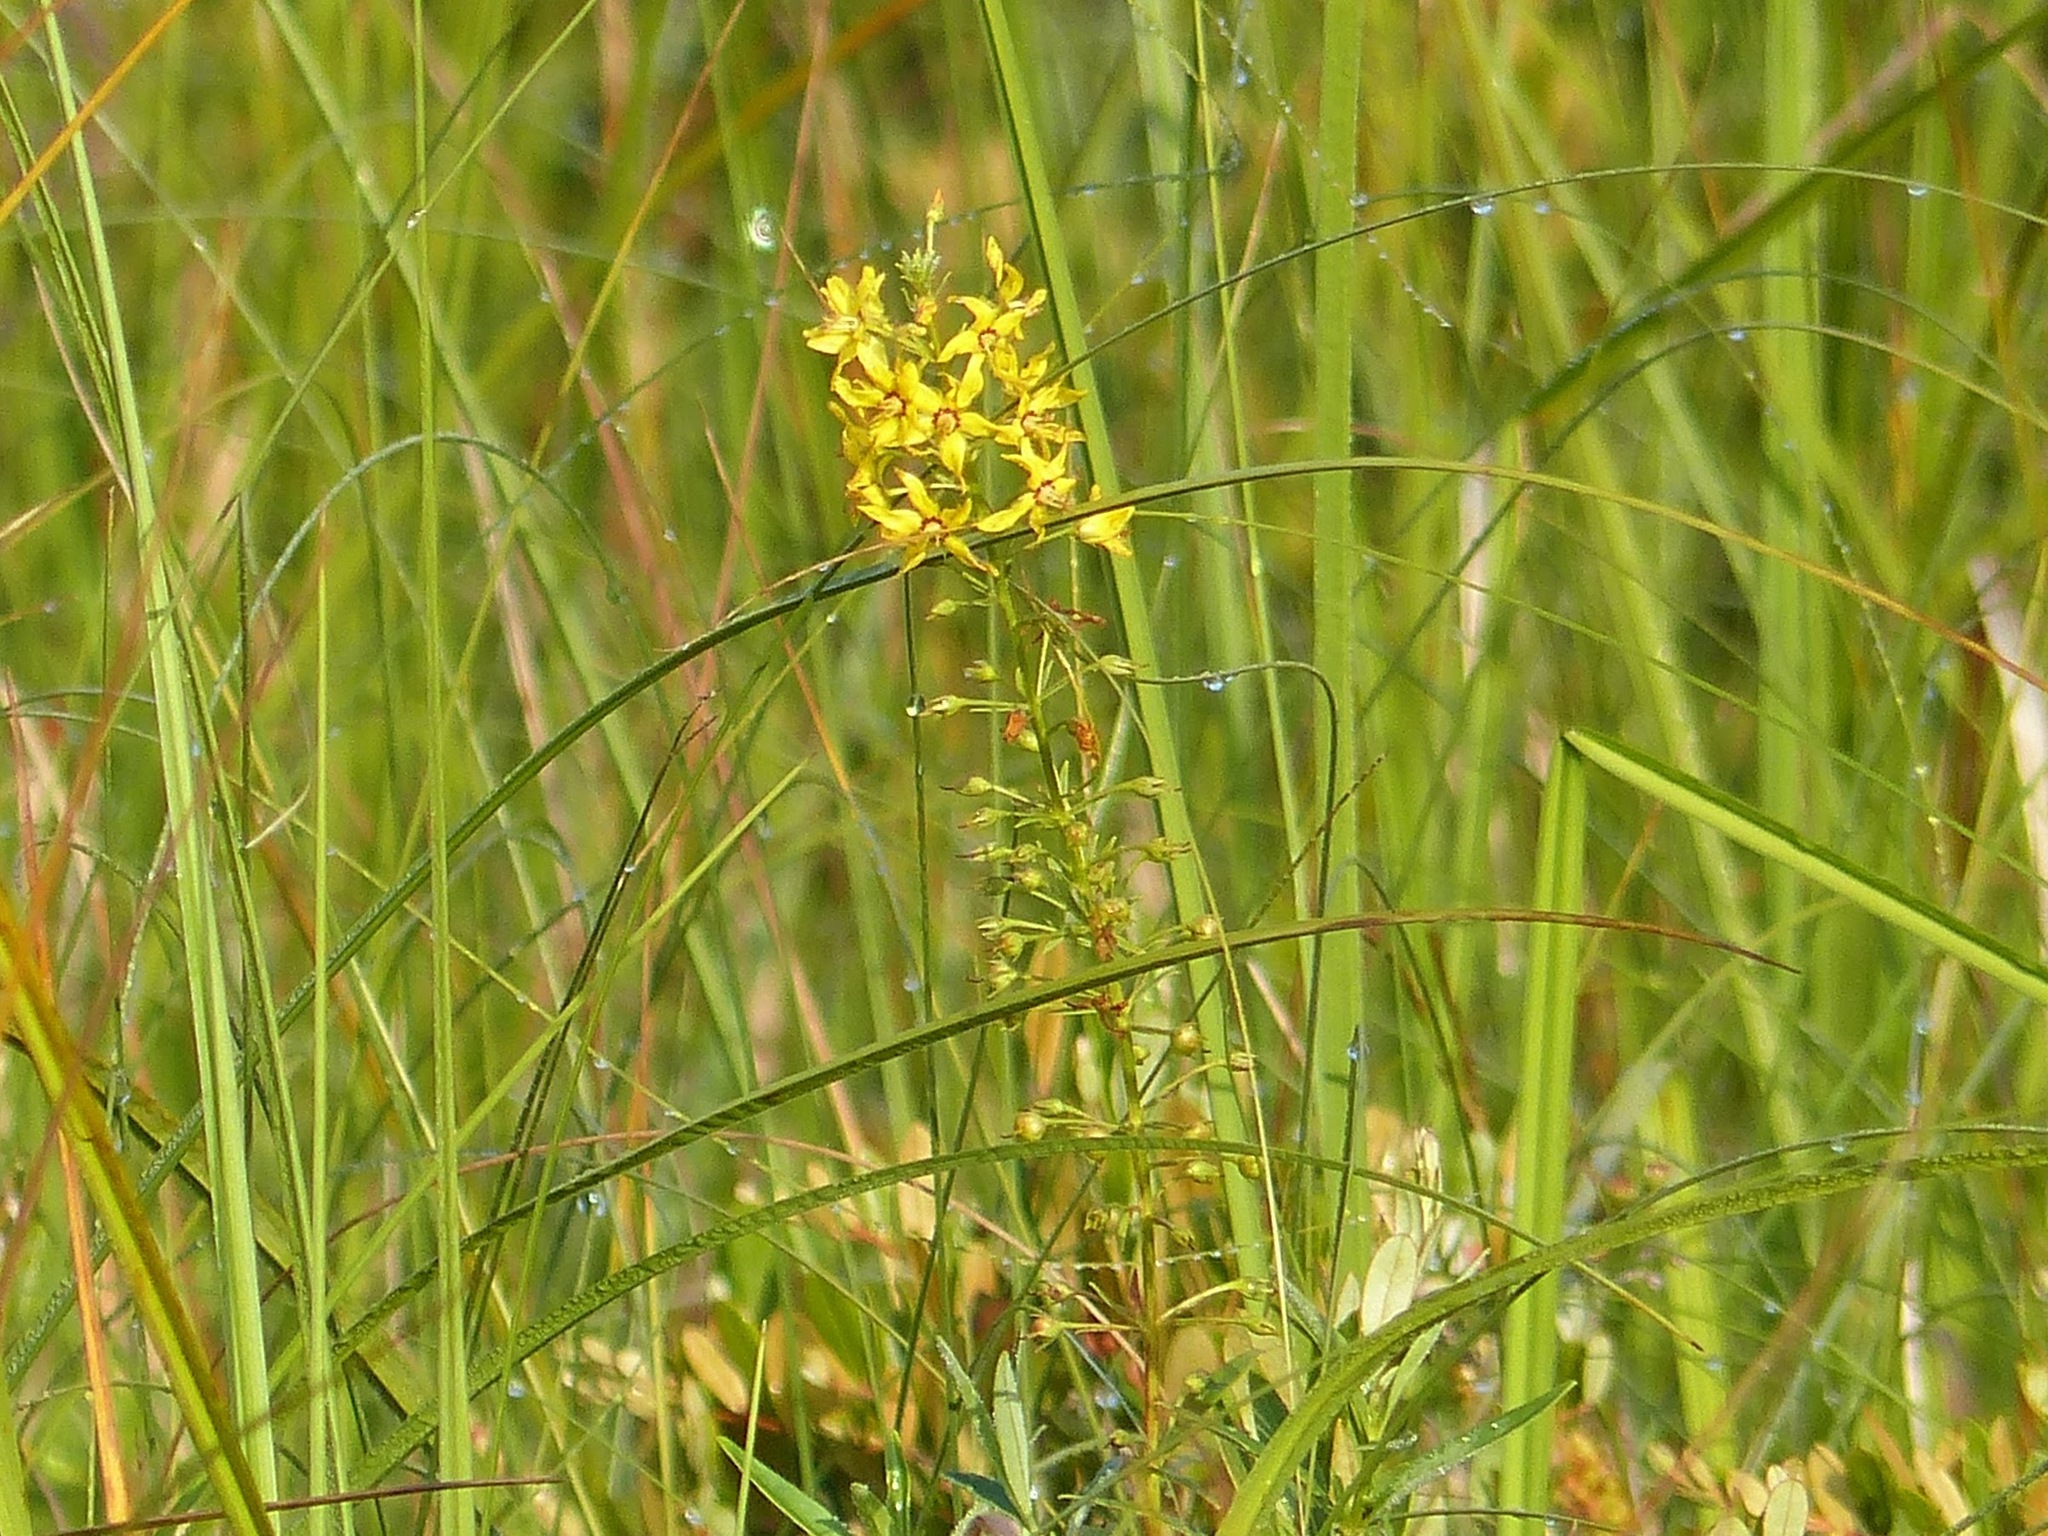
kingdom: Plantae
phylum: Tracheophyta
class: Magnoliopsida
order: Ericales
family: Primulaceae
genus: Lysimachia
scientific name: Lysimachia terrestris
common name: Lake loosestrife
